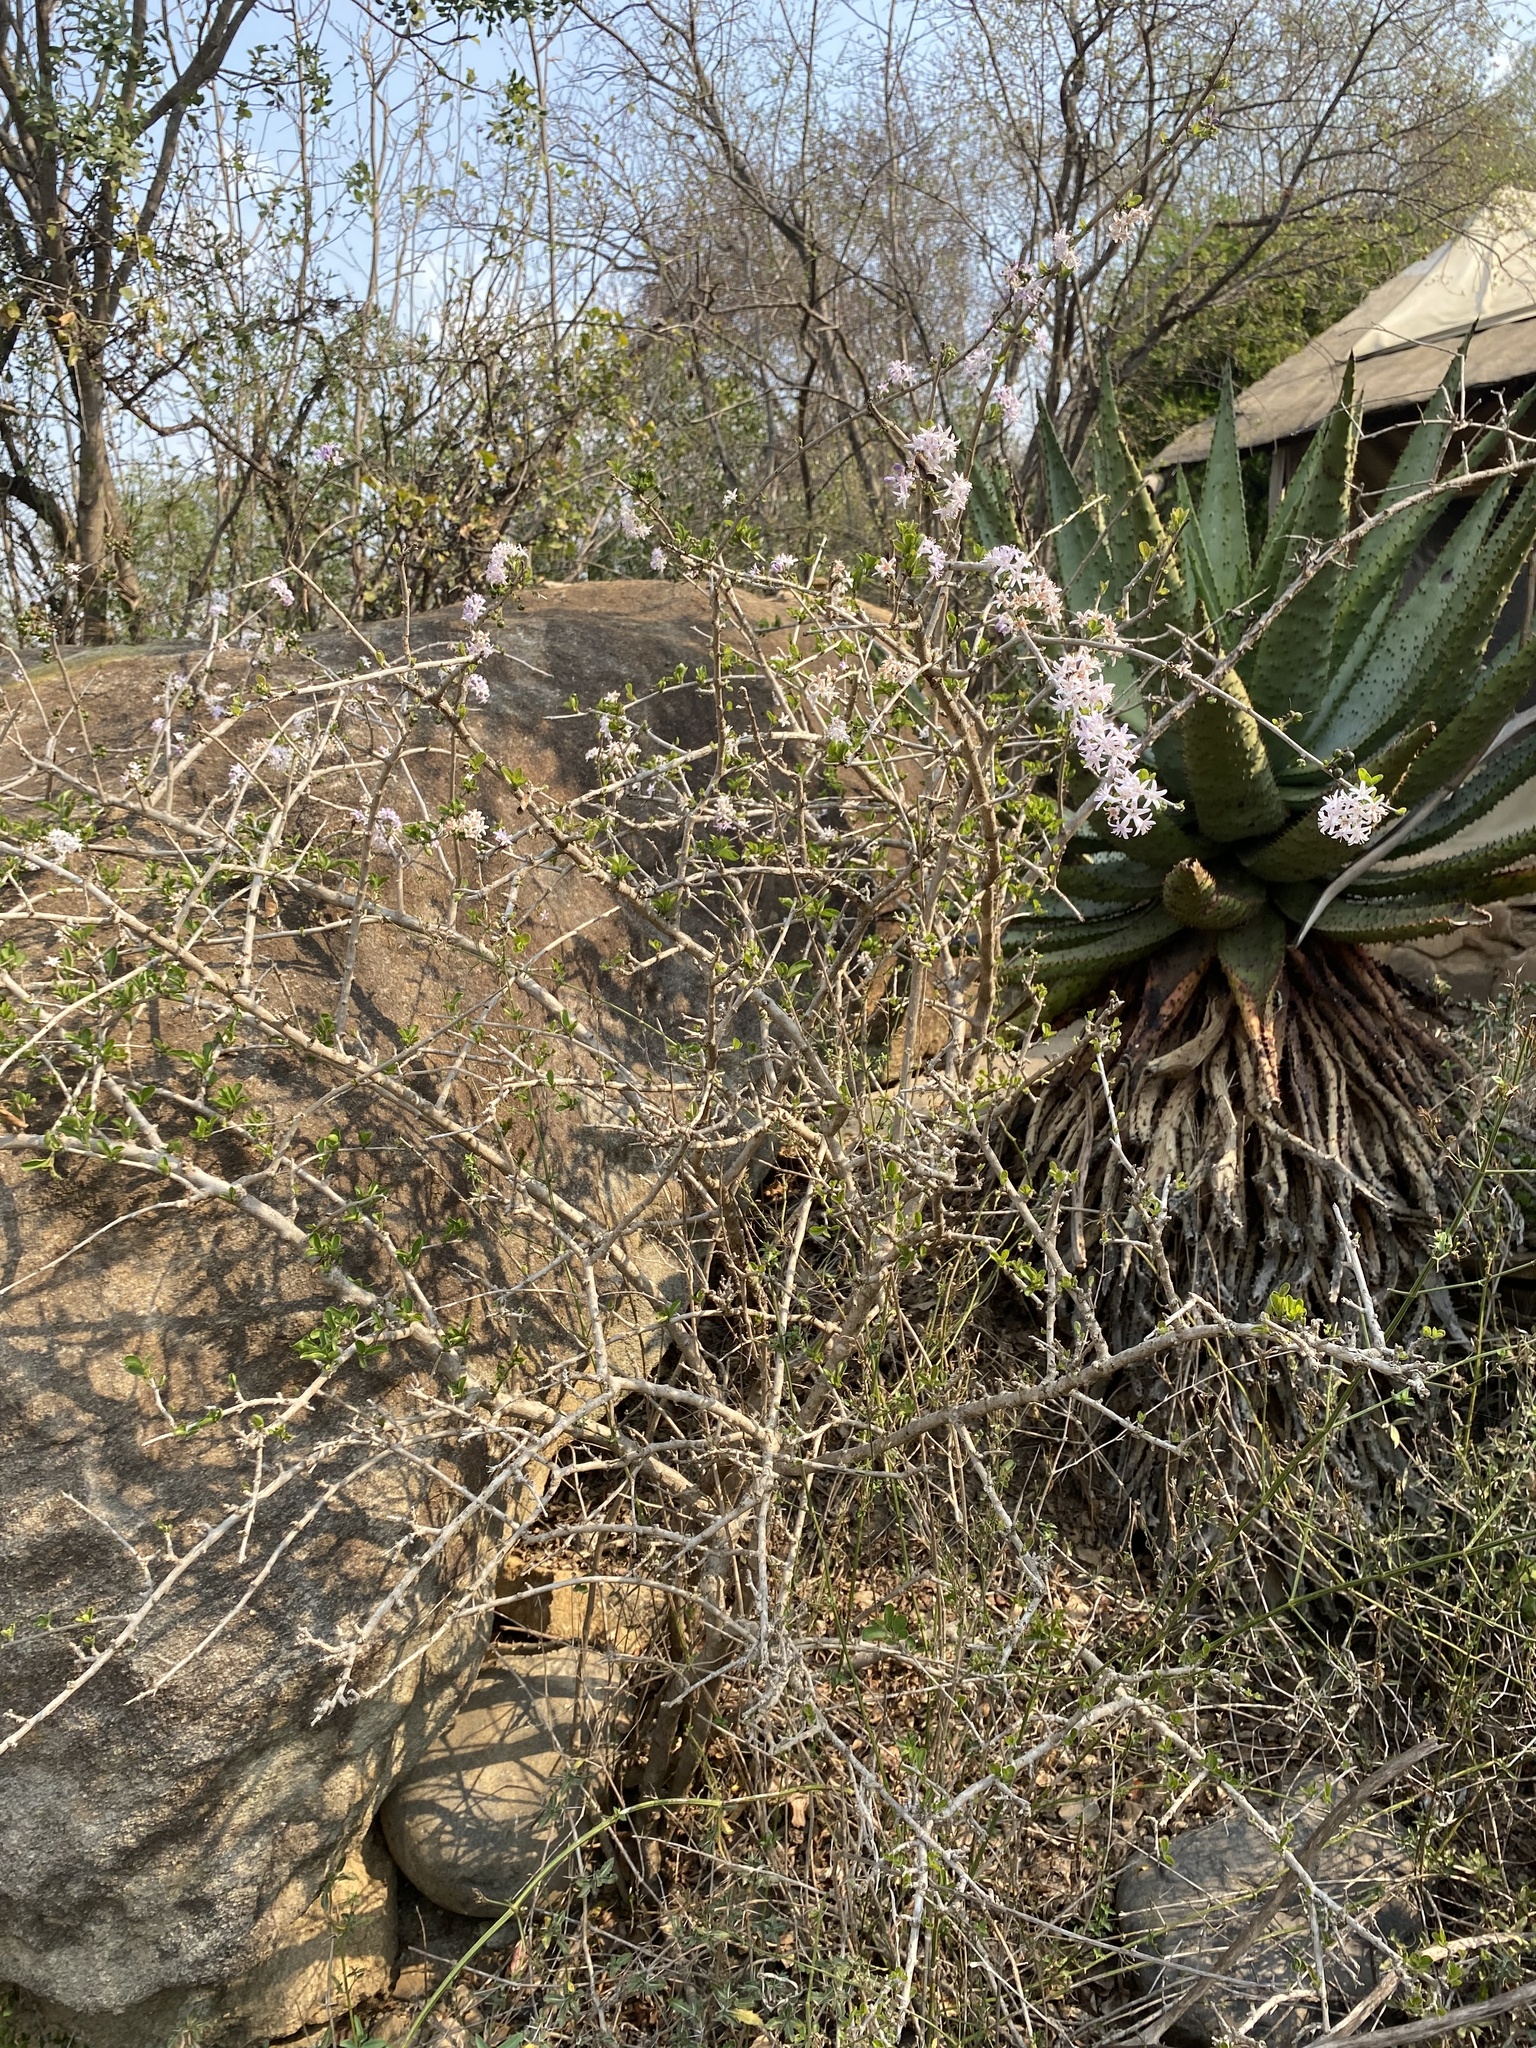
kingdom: Plantae
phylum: Tracheophyta
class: Magnoliopsida
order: Boraginales
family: Ehretiaceae
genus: Ehretia
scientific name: Ehretia rigida
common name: Cape lilac
